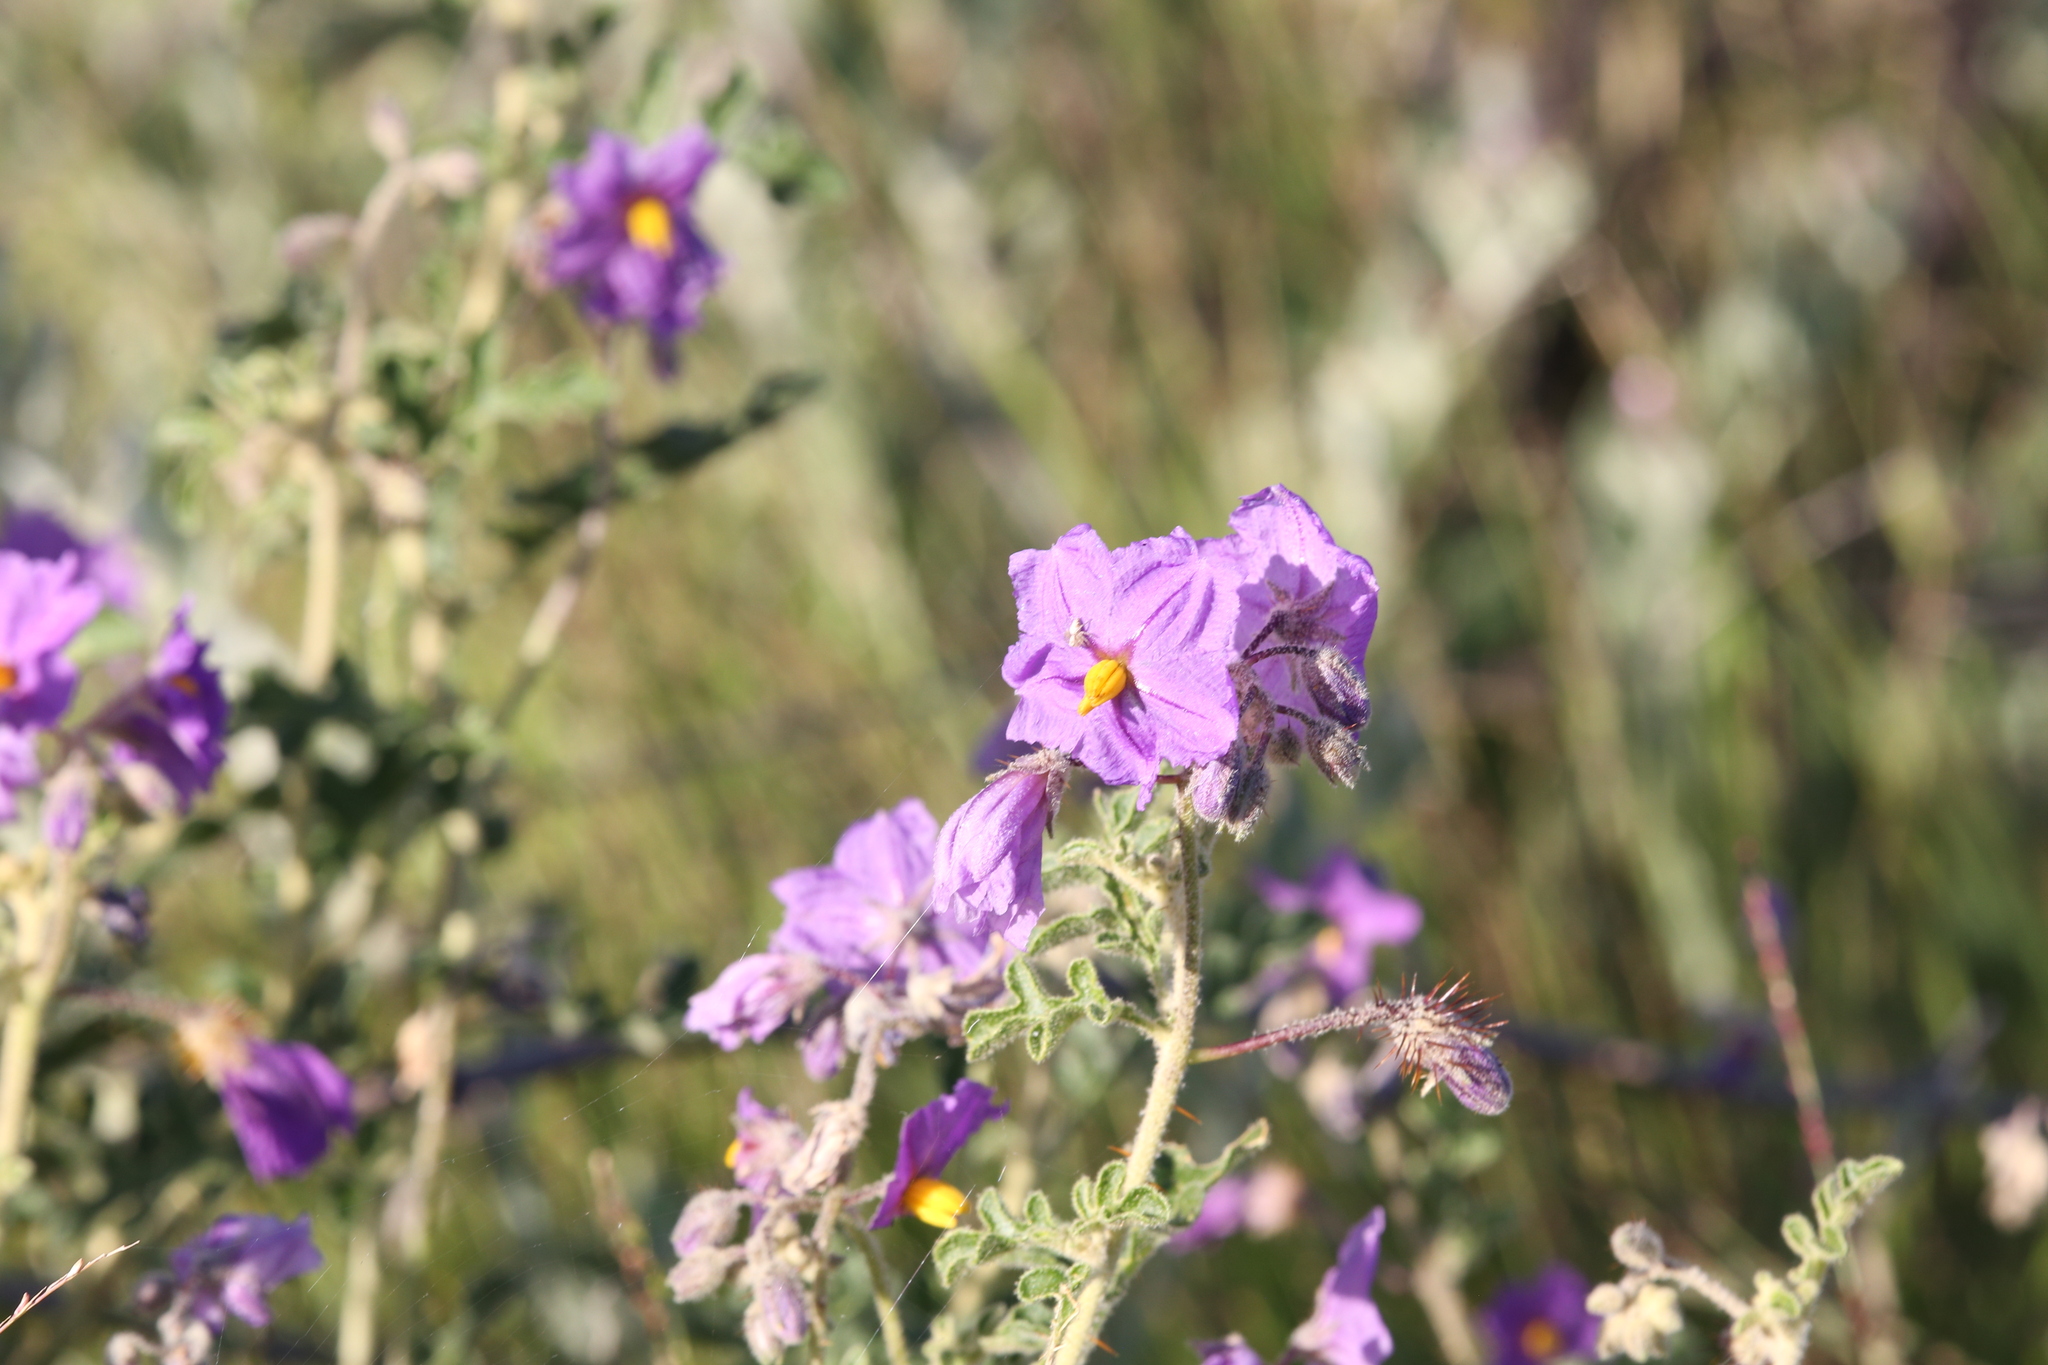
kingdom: Plantae
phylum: Tracheophyta
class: Magnoliopsida
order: Solanales
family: Solanaceae
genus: Solanum
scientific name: Solanum diversiflorum
